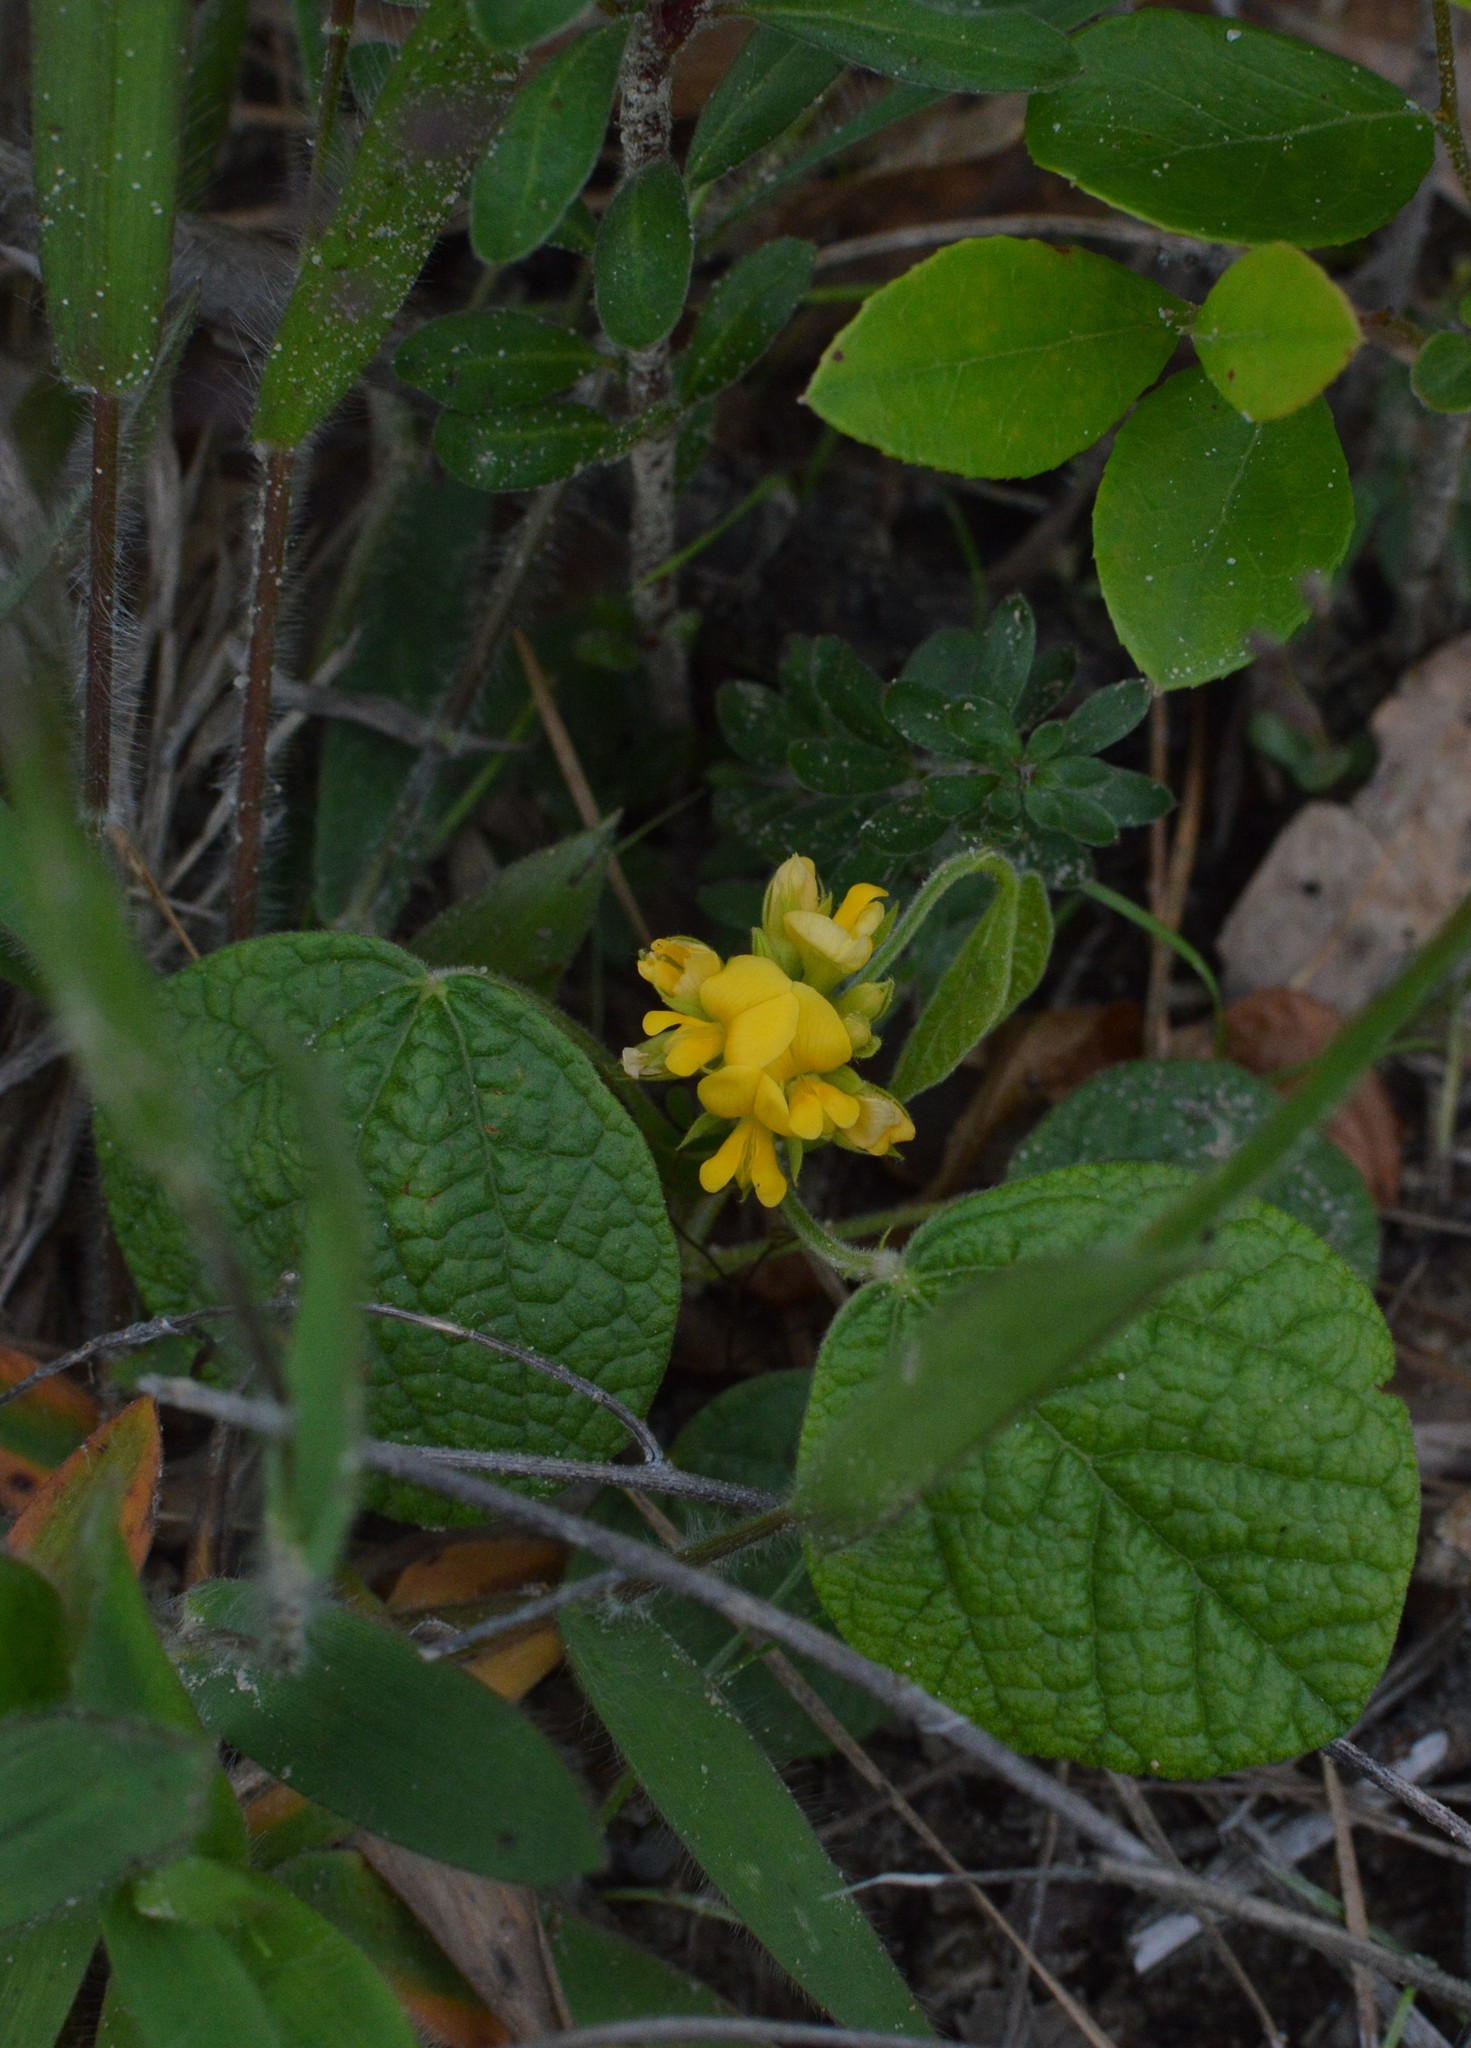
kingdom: Plantae
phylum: Tracheophyta
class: Magnoliopsida
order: Fabales
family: Fabaceae
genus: Rhynchosia
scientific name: Rhynchosia reniformis
